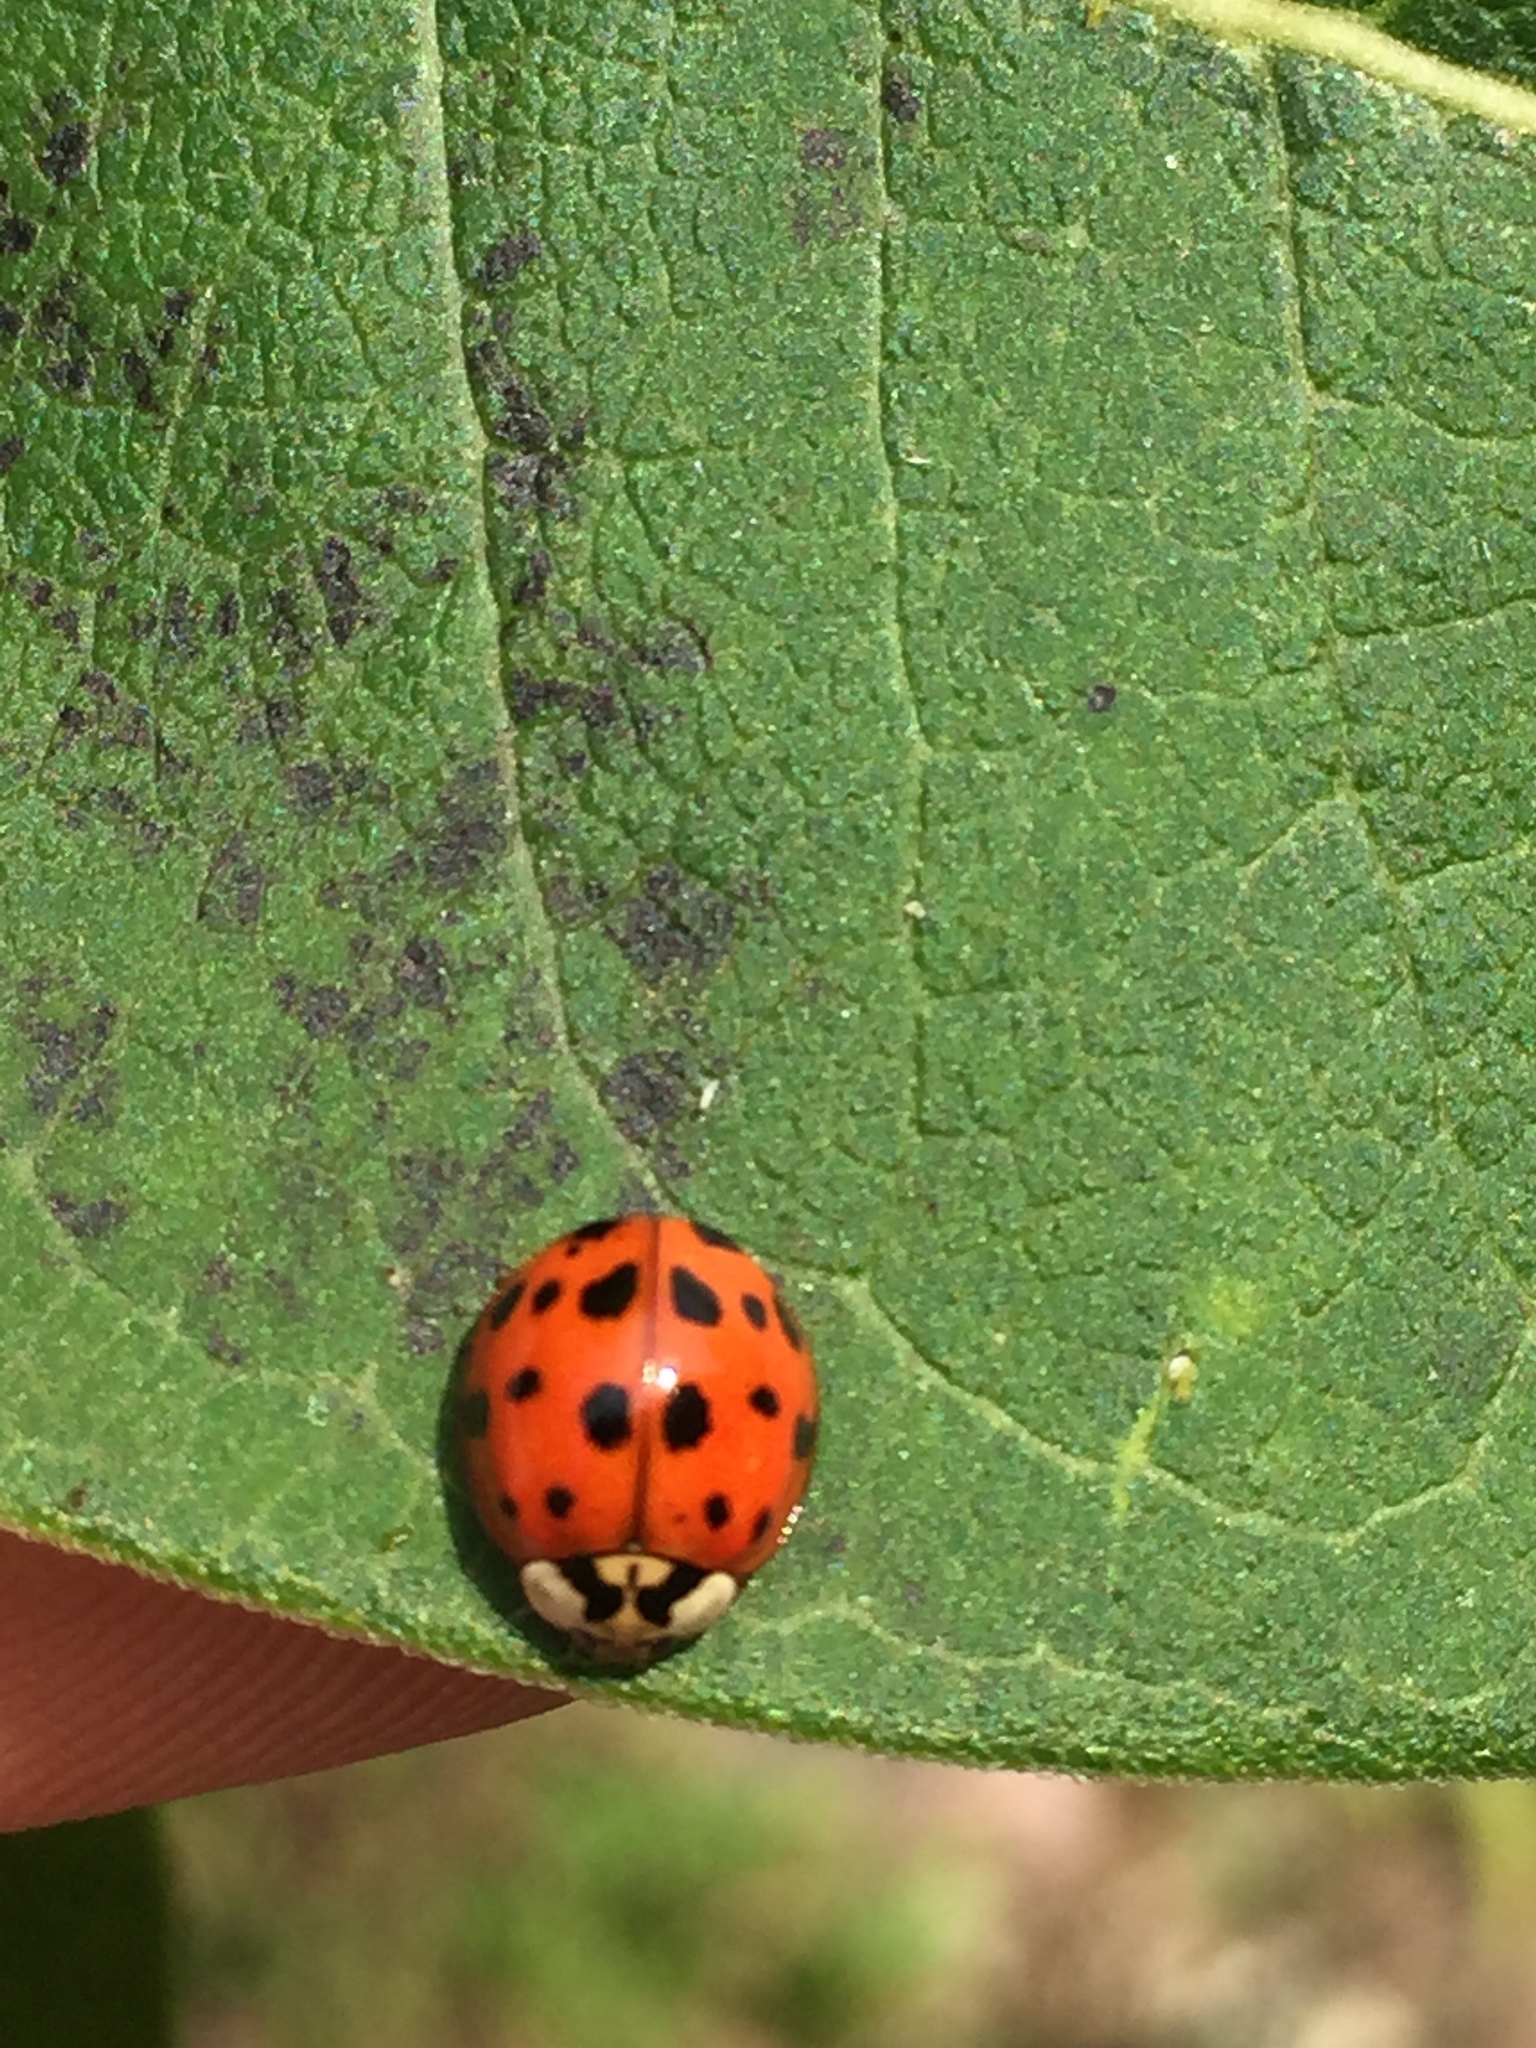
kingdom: Animalia
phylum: Arthropoda
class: Insecta
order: Coleoptera
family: Coccinellidae
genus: Harmonia
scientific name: Harmonia axyridis
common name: Harlequin ladybird
